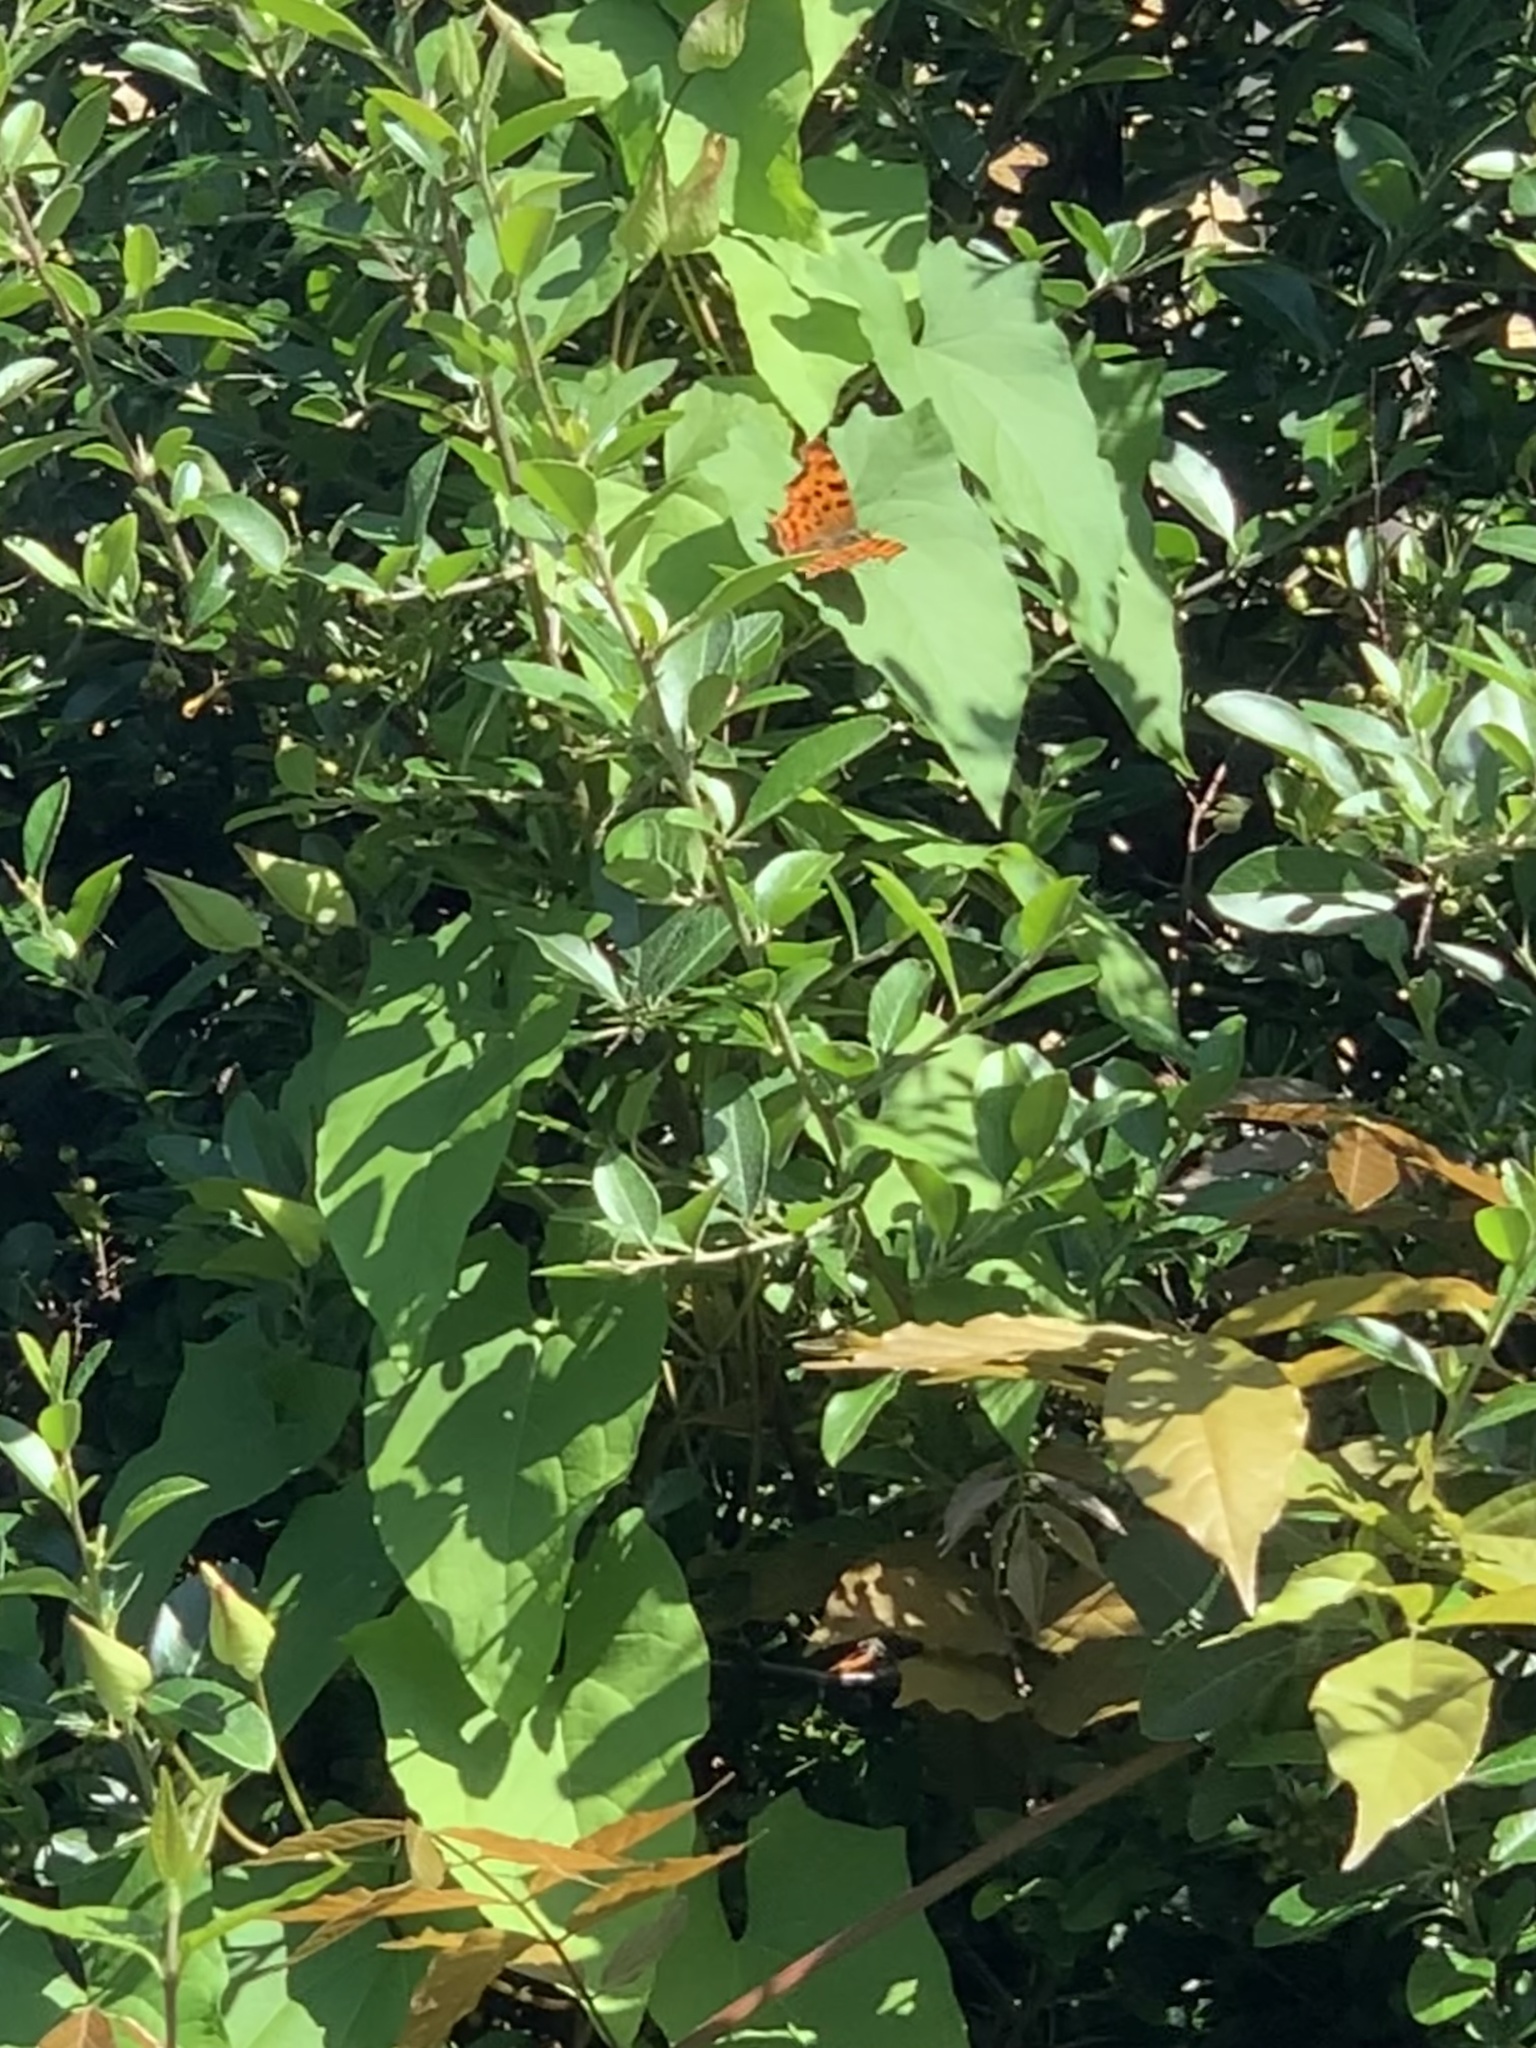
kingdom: Animalia
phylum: Arthropoda
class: Insecta
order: Lepidoptera
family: Nymphalidae
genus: Polygonia
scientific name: Polygonia c-album
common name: Comma
